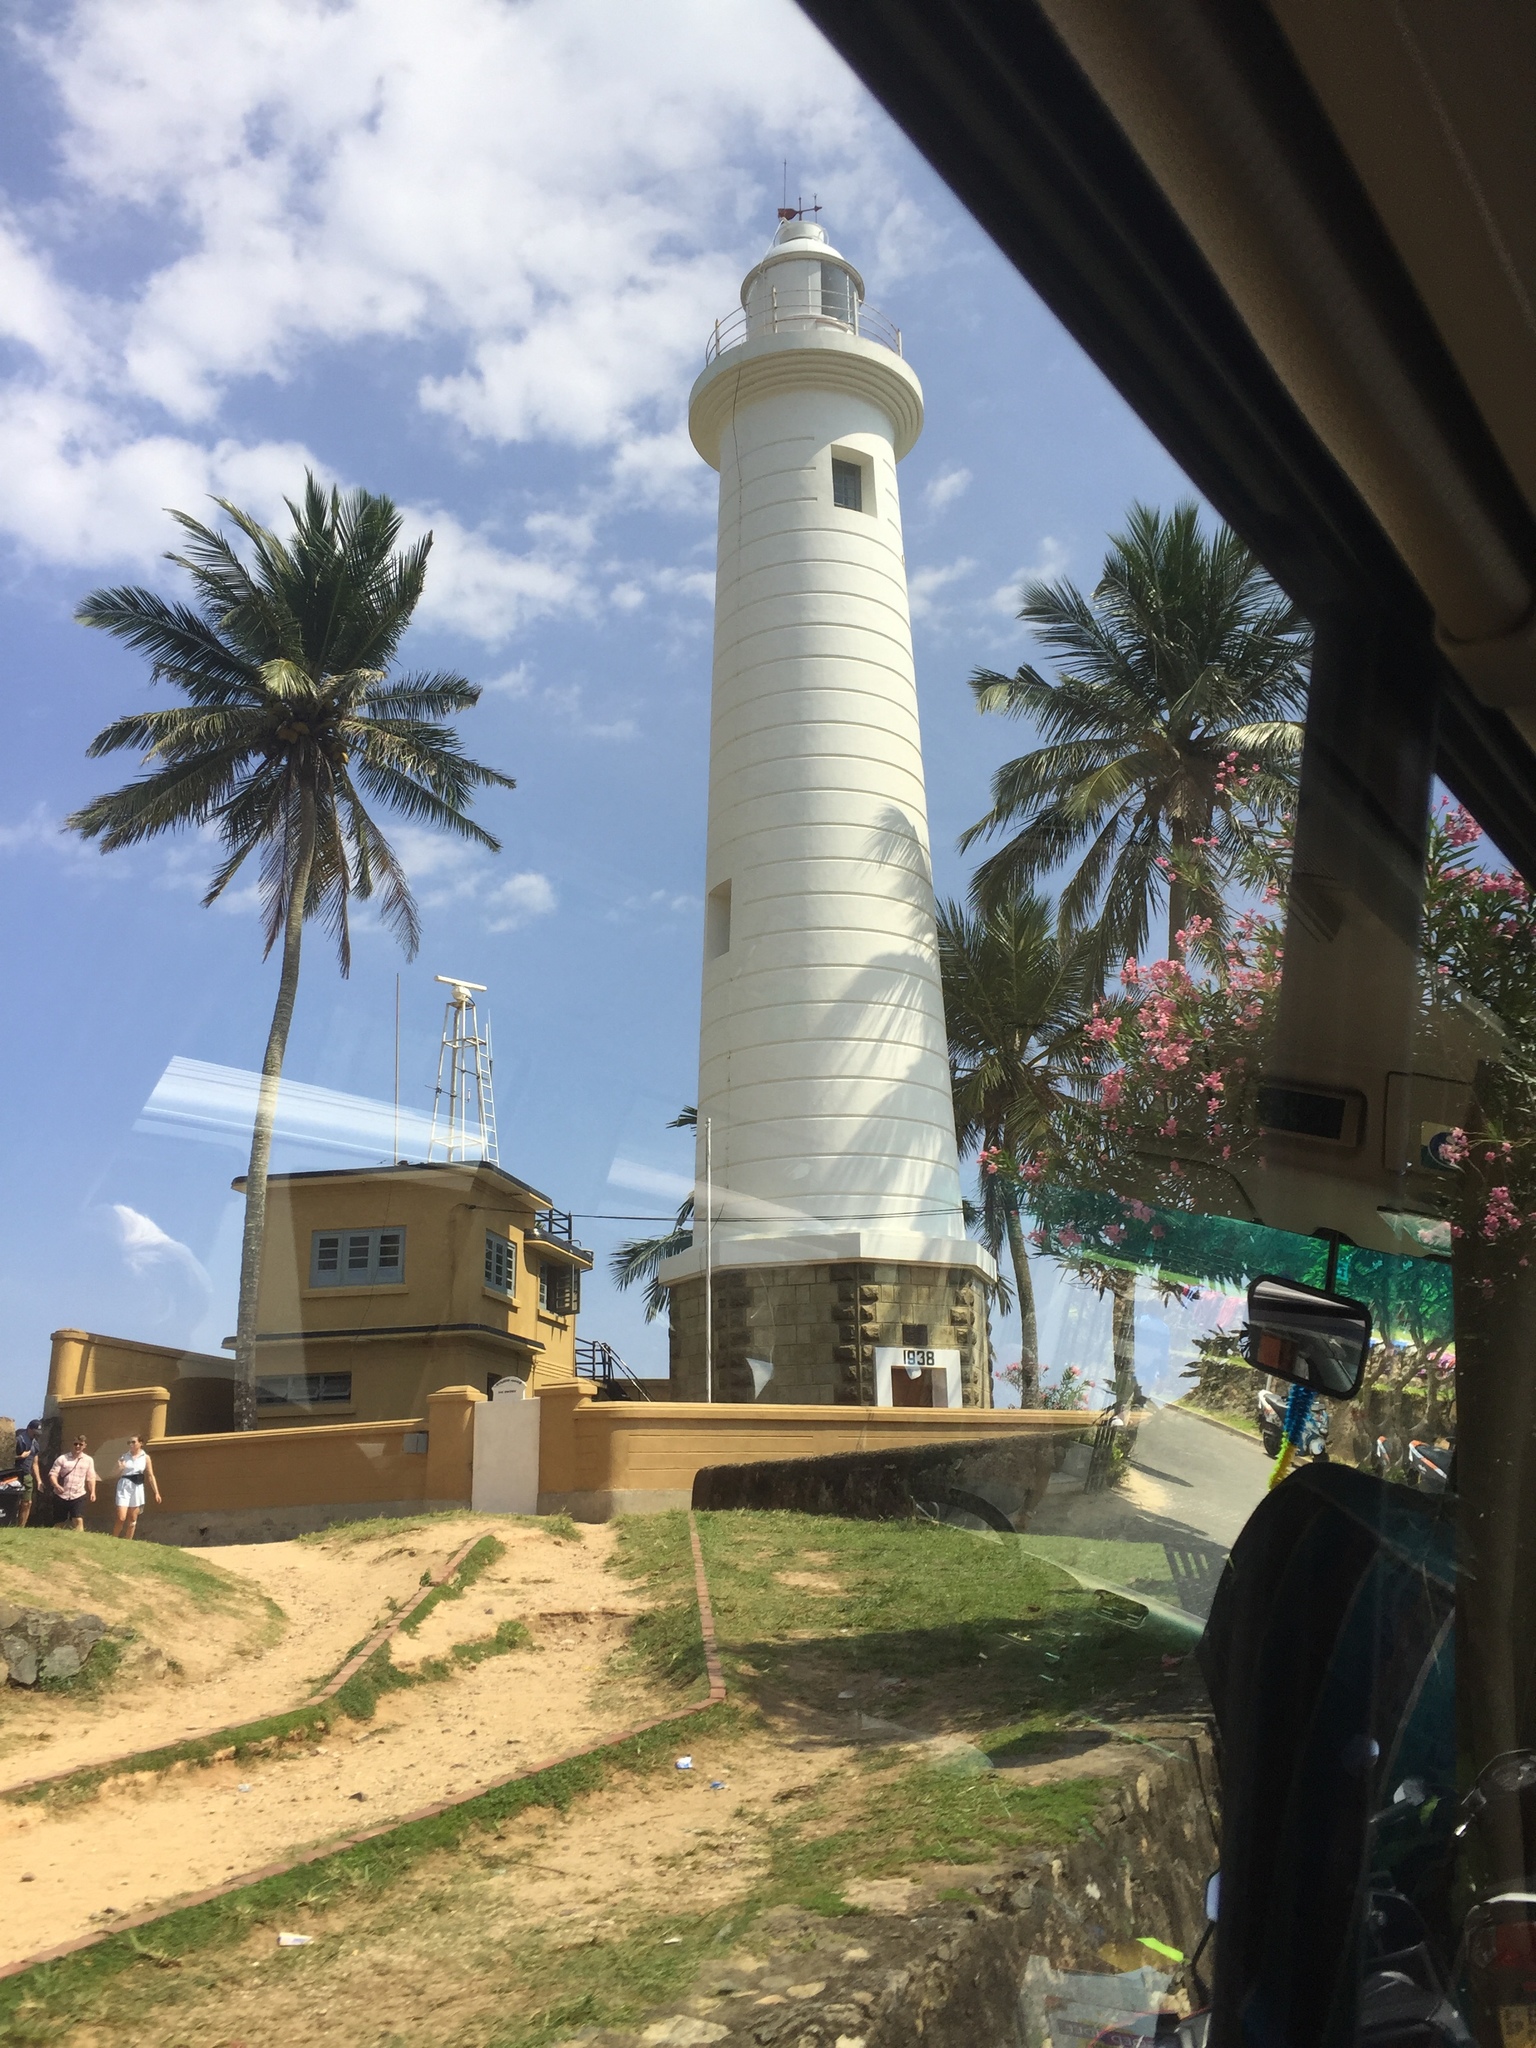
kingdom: Plantae
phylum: Tracheophyta
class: Liliopsida
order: Arecales
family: Arecaceae
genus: Cocos
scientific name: Cocos nucifera
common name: Coconut palm
